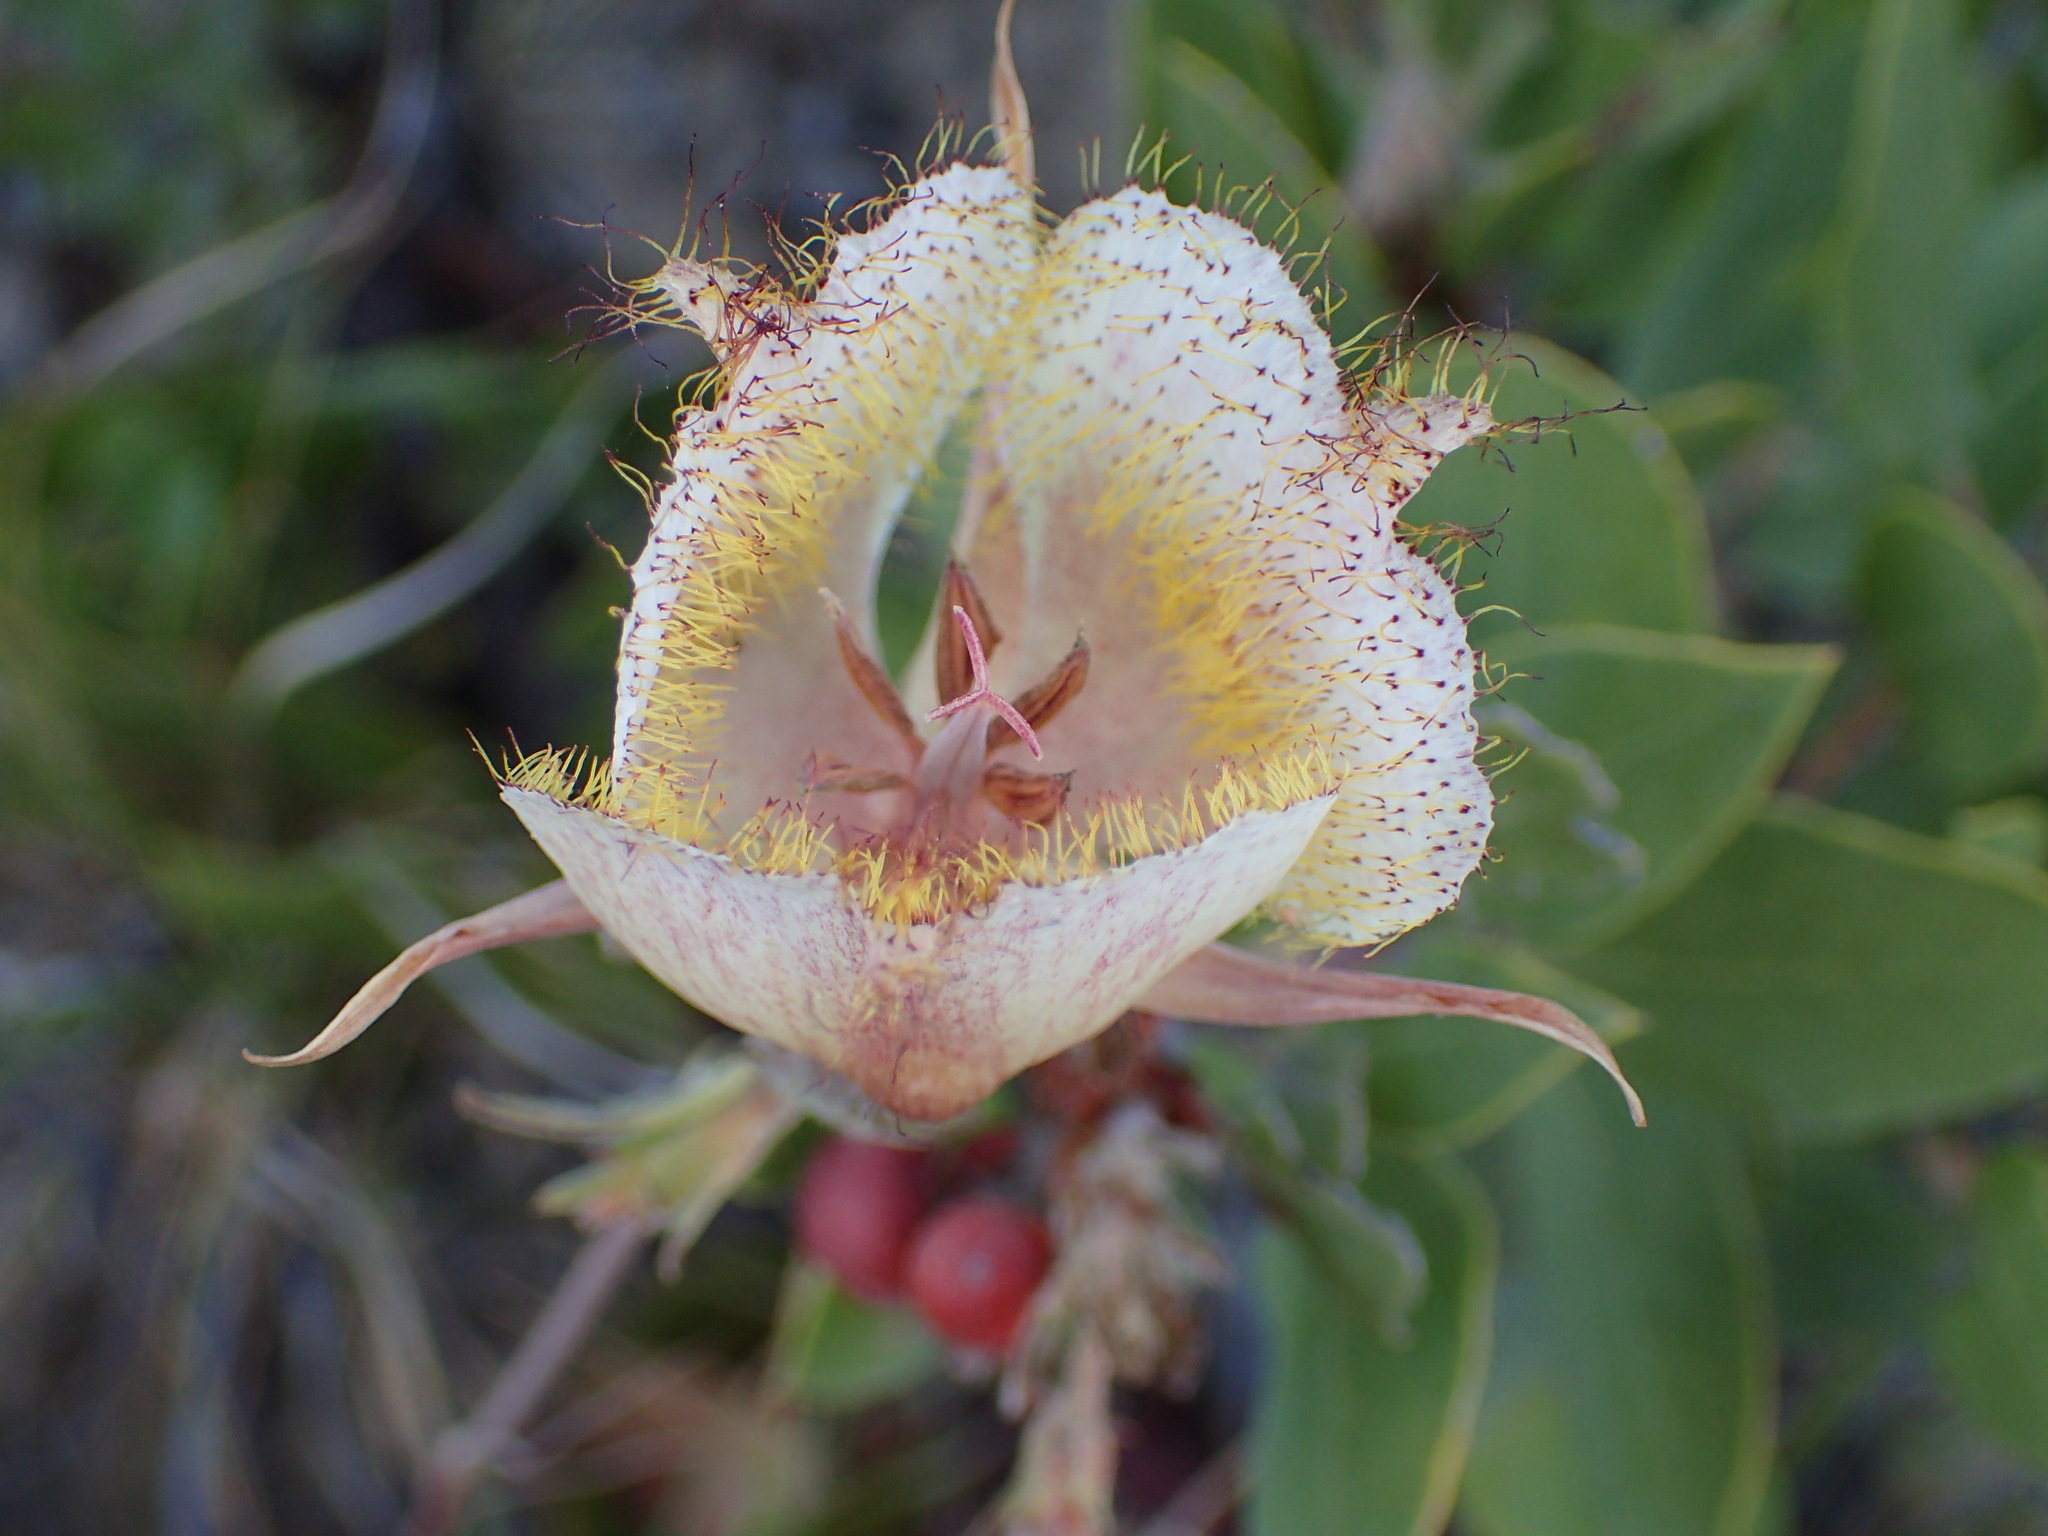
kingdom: Plantae
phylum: Tracheophyta
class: Liliopsida
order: Liliales
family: Liliaceae
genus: Calochortus
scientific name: Calochortus fimbriatus
